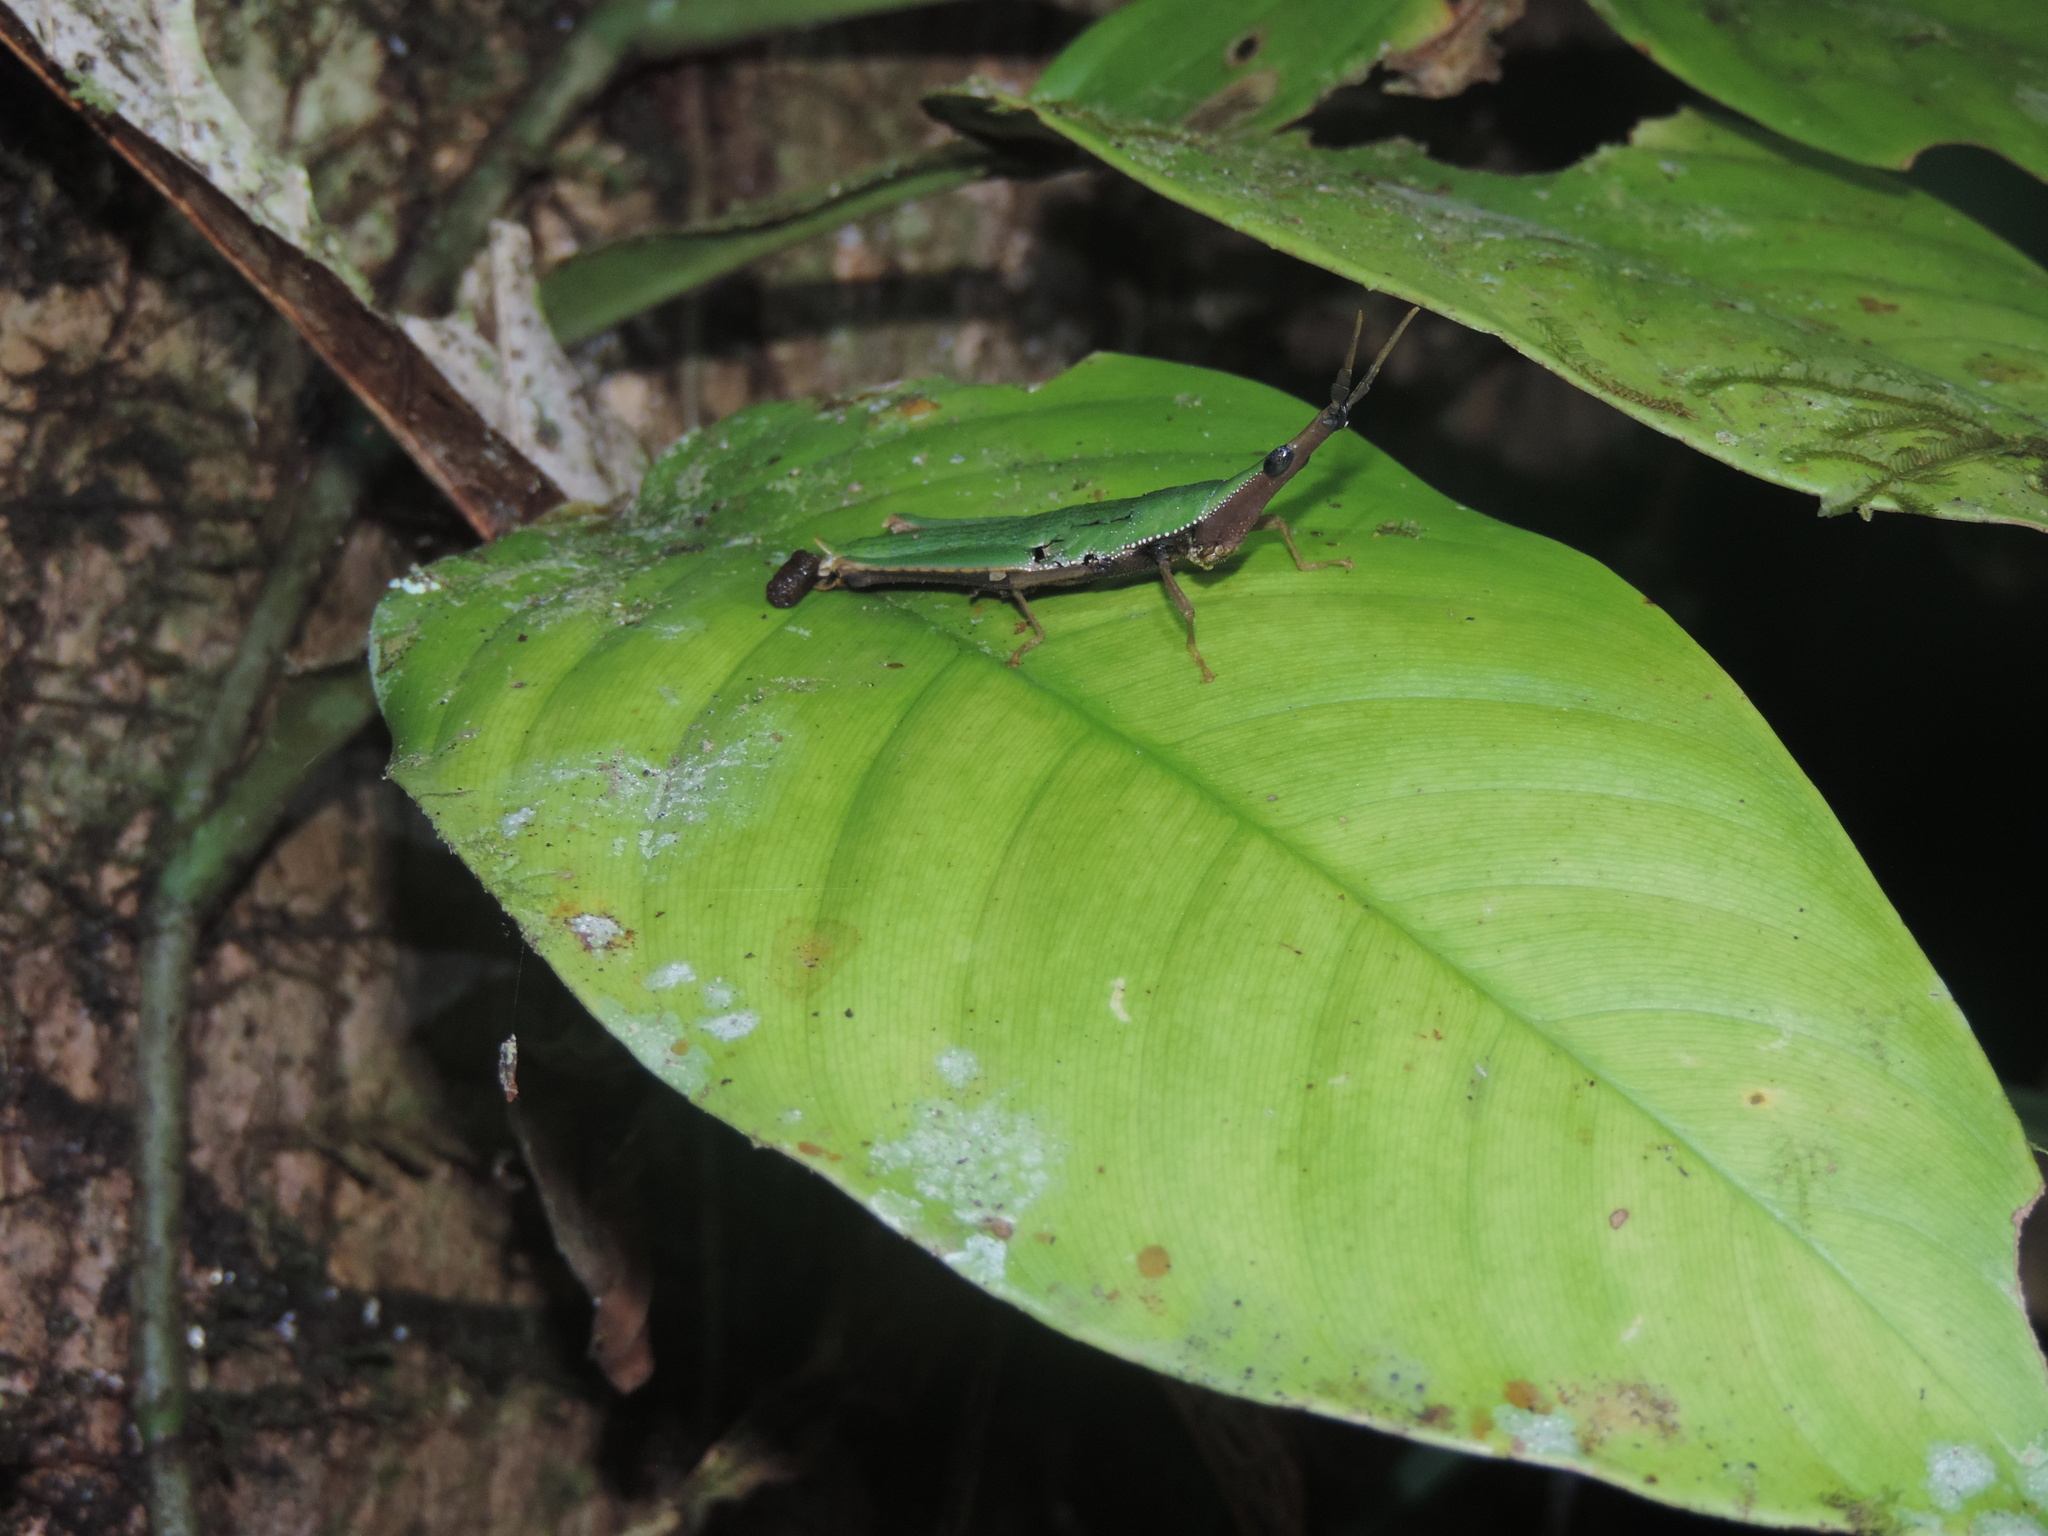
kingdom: Animalia
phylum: Arthropoda
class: Insecta
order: Orthoptera
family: Pyrgomorphidae
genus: Omura
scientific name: Omura congrua
